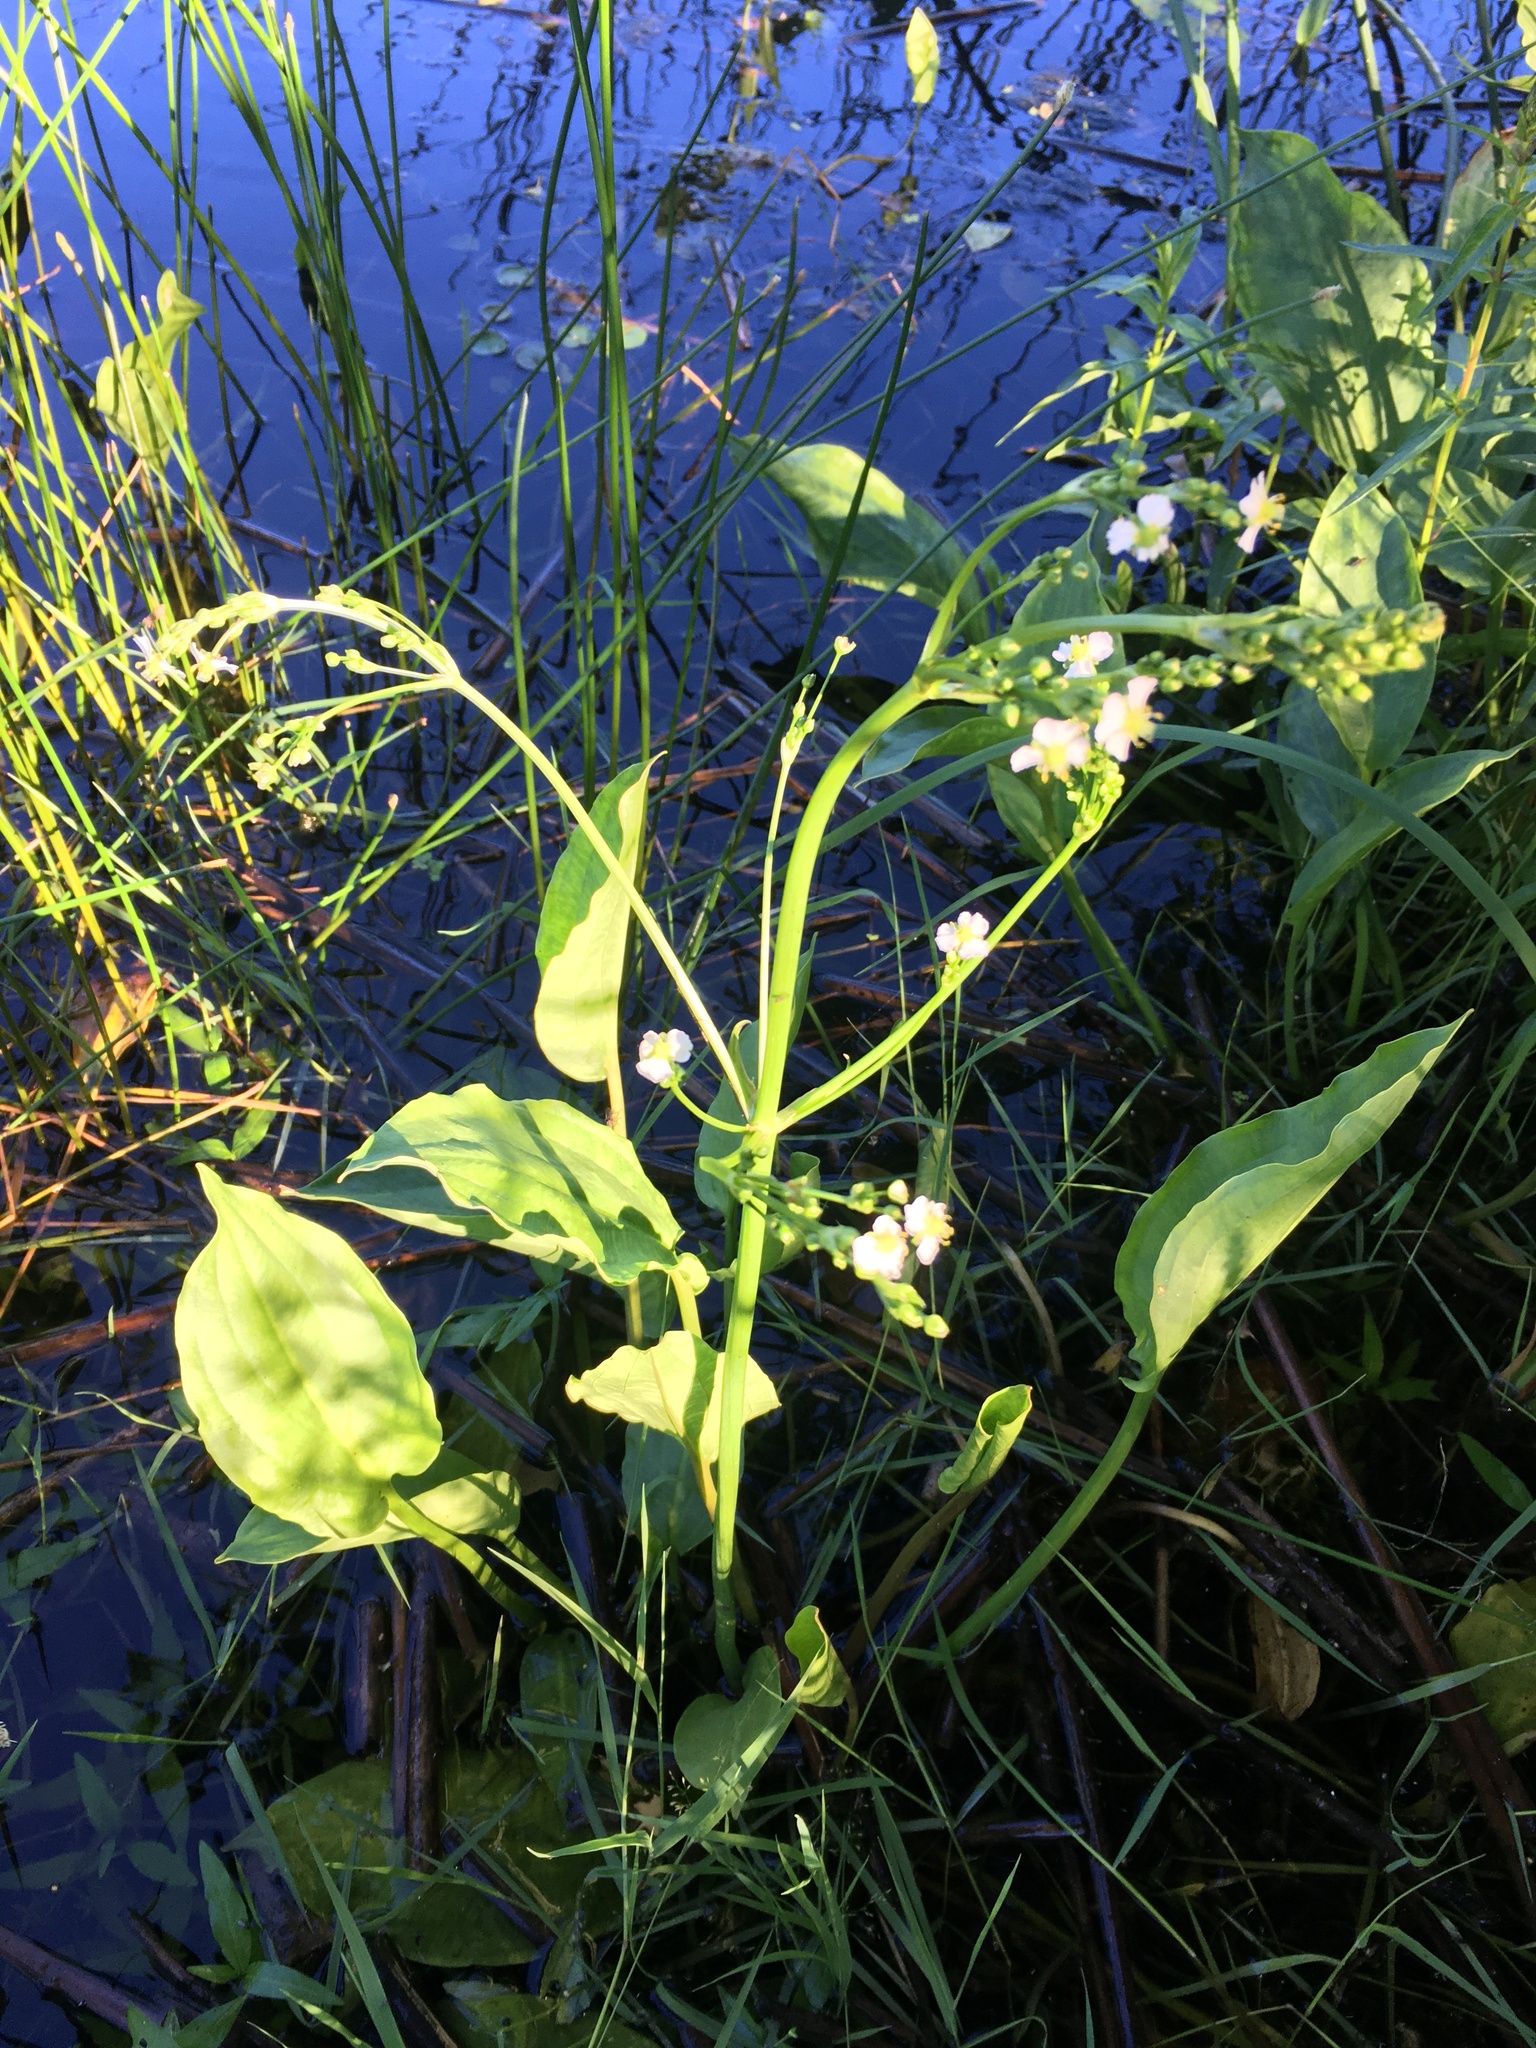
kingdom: Plantae
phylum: Tracheophyta
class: Liliopsida
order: Alismatales
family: Alismataceae
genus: Alisma
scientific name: Alisma plantago-aquatica
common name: Water-plantain
